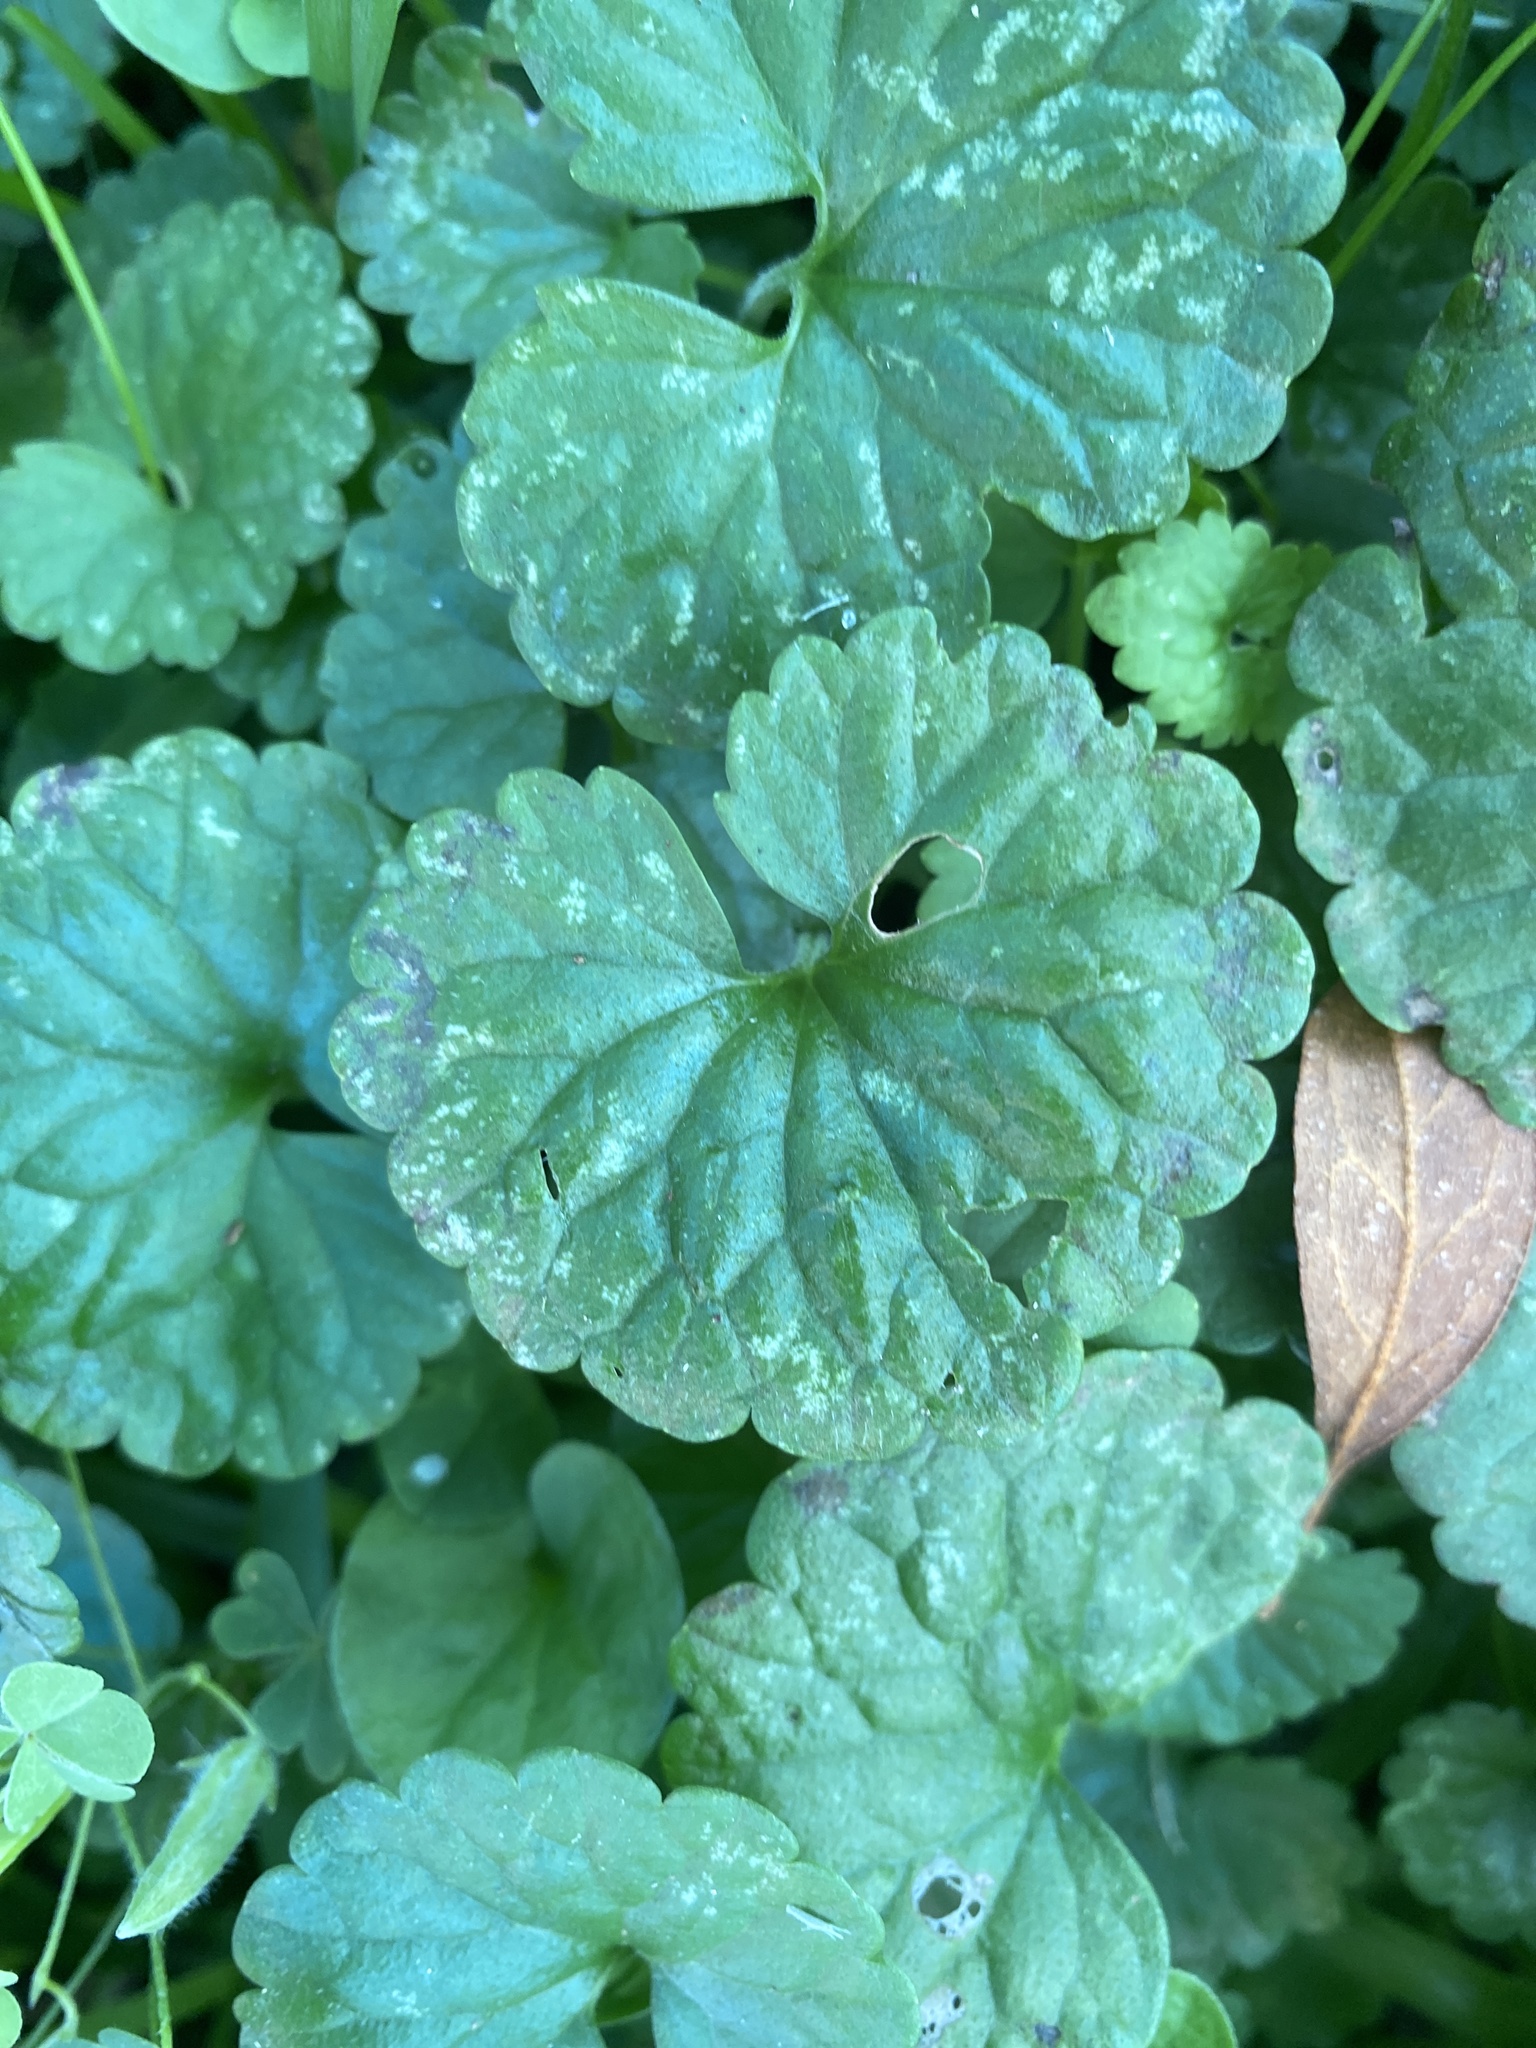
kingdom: Plantae
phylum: Tracheophyta
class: Magnoliopsida
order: Lamiales
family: Lamiaceae
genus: Glechoma
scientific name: Glechoma hederacea
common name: Ground ivy
